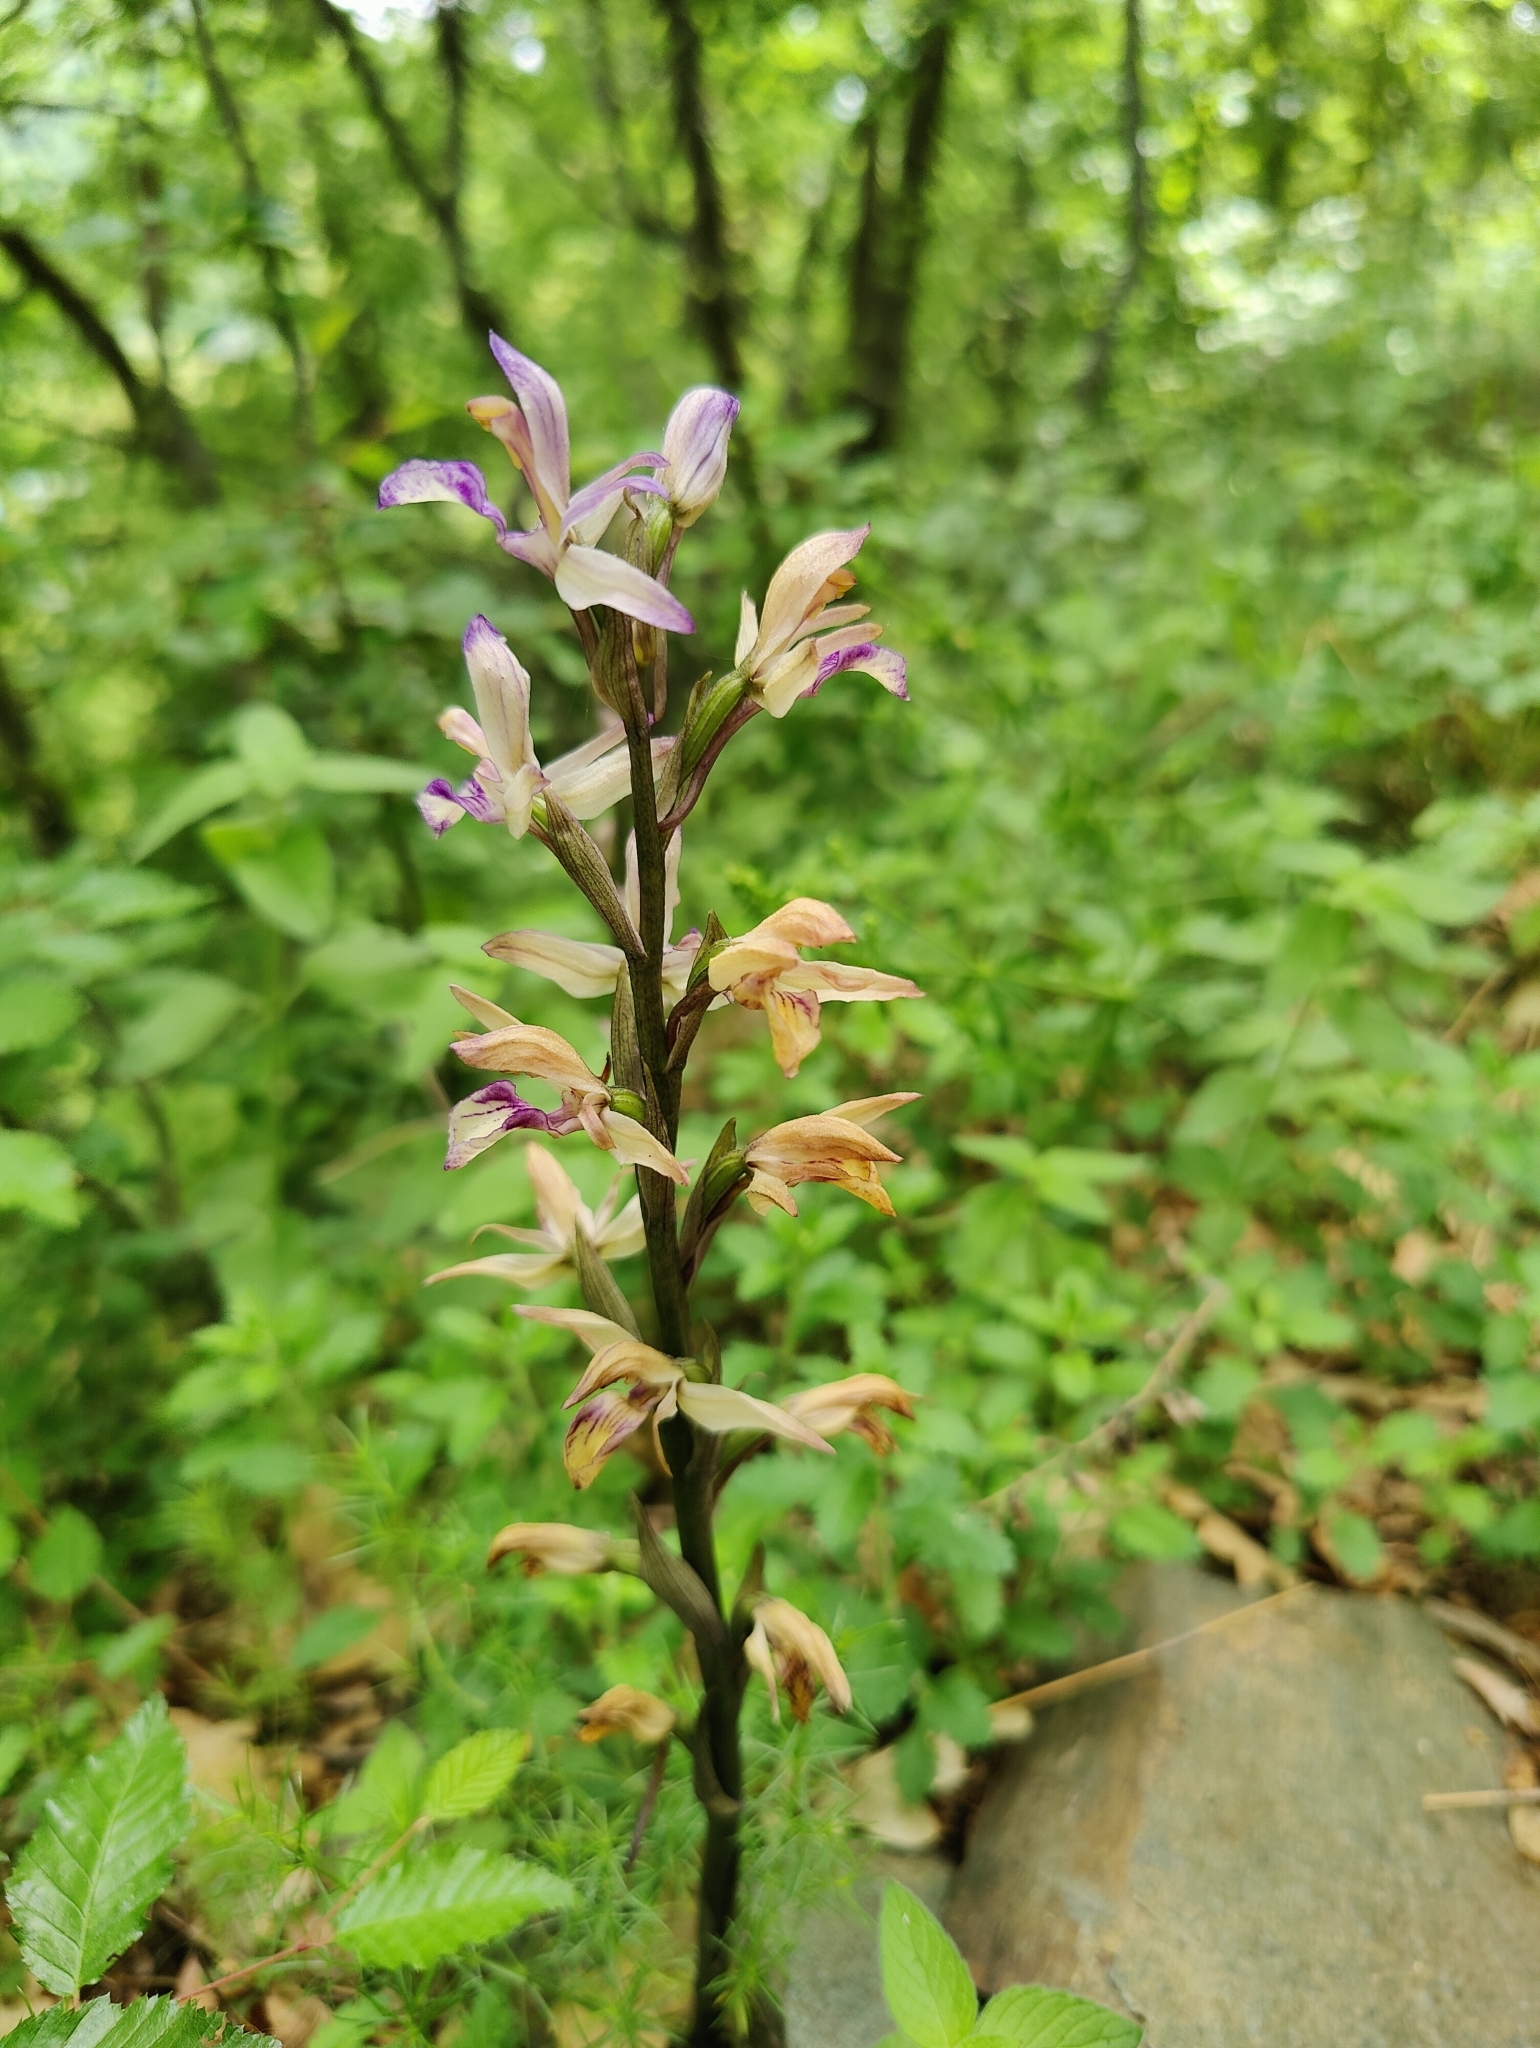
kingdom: Plantae
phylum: Tracheophyta
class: Liliopsida
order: Asparagales
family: Orchidaceae
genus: Limodorum
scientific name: Limodorum abortivum
